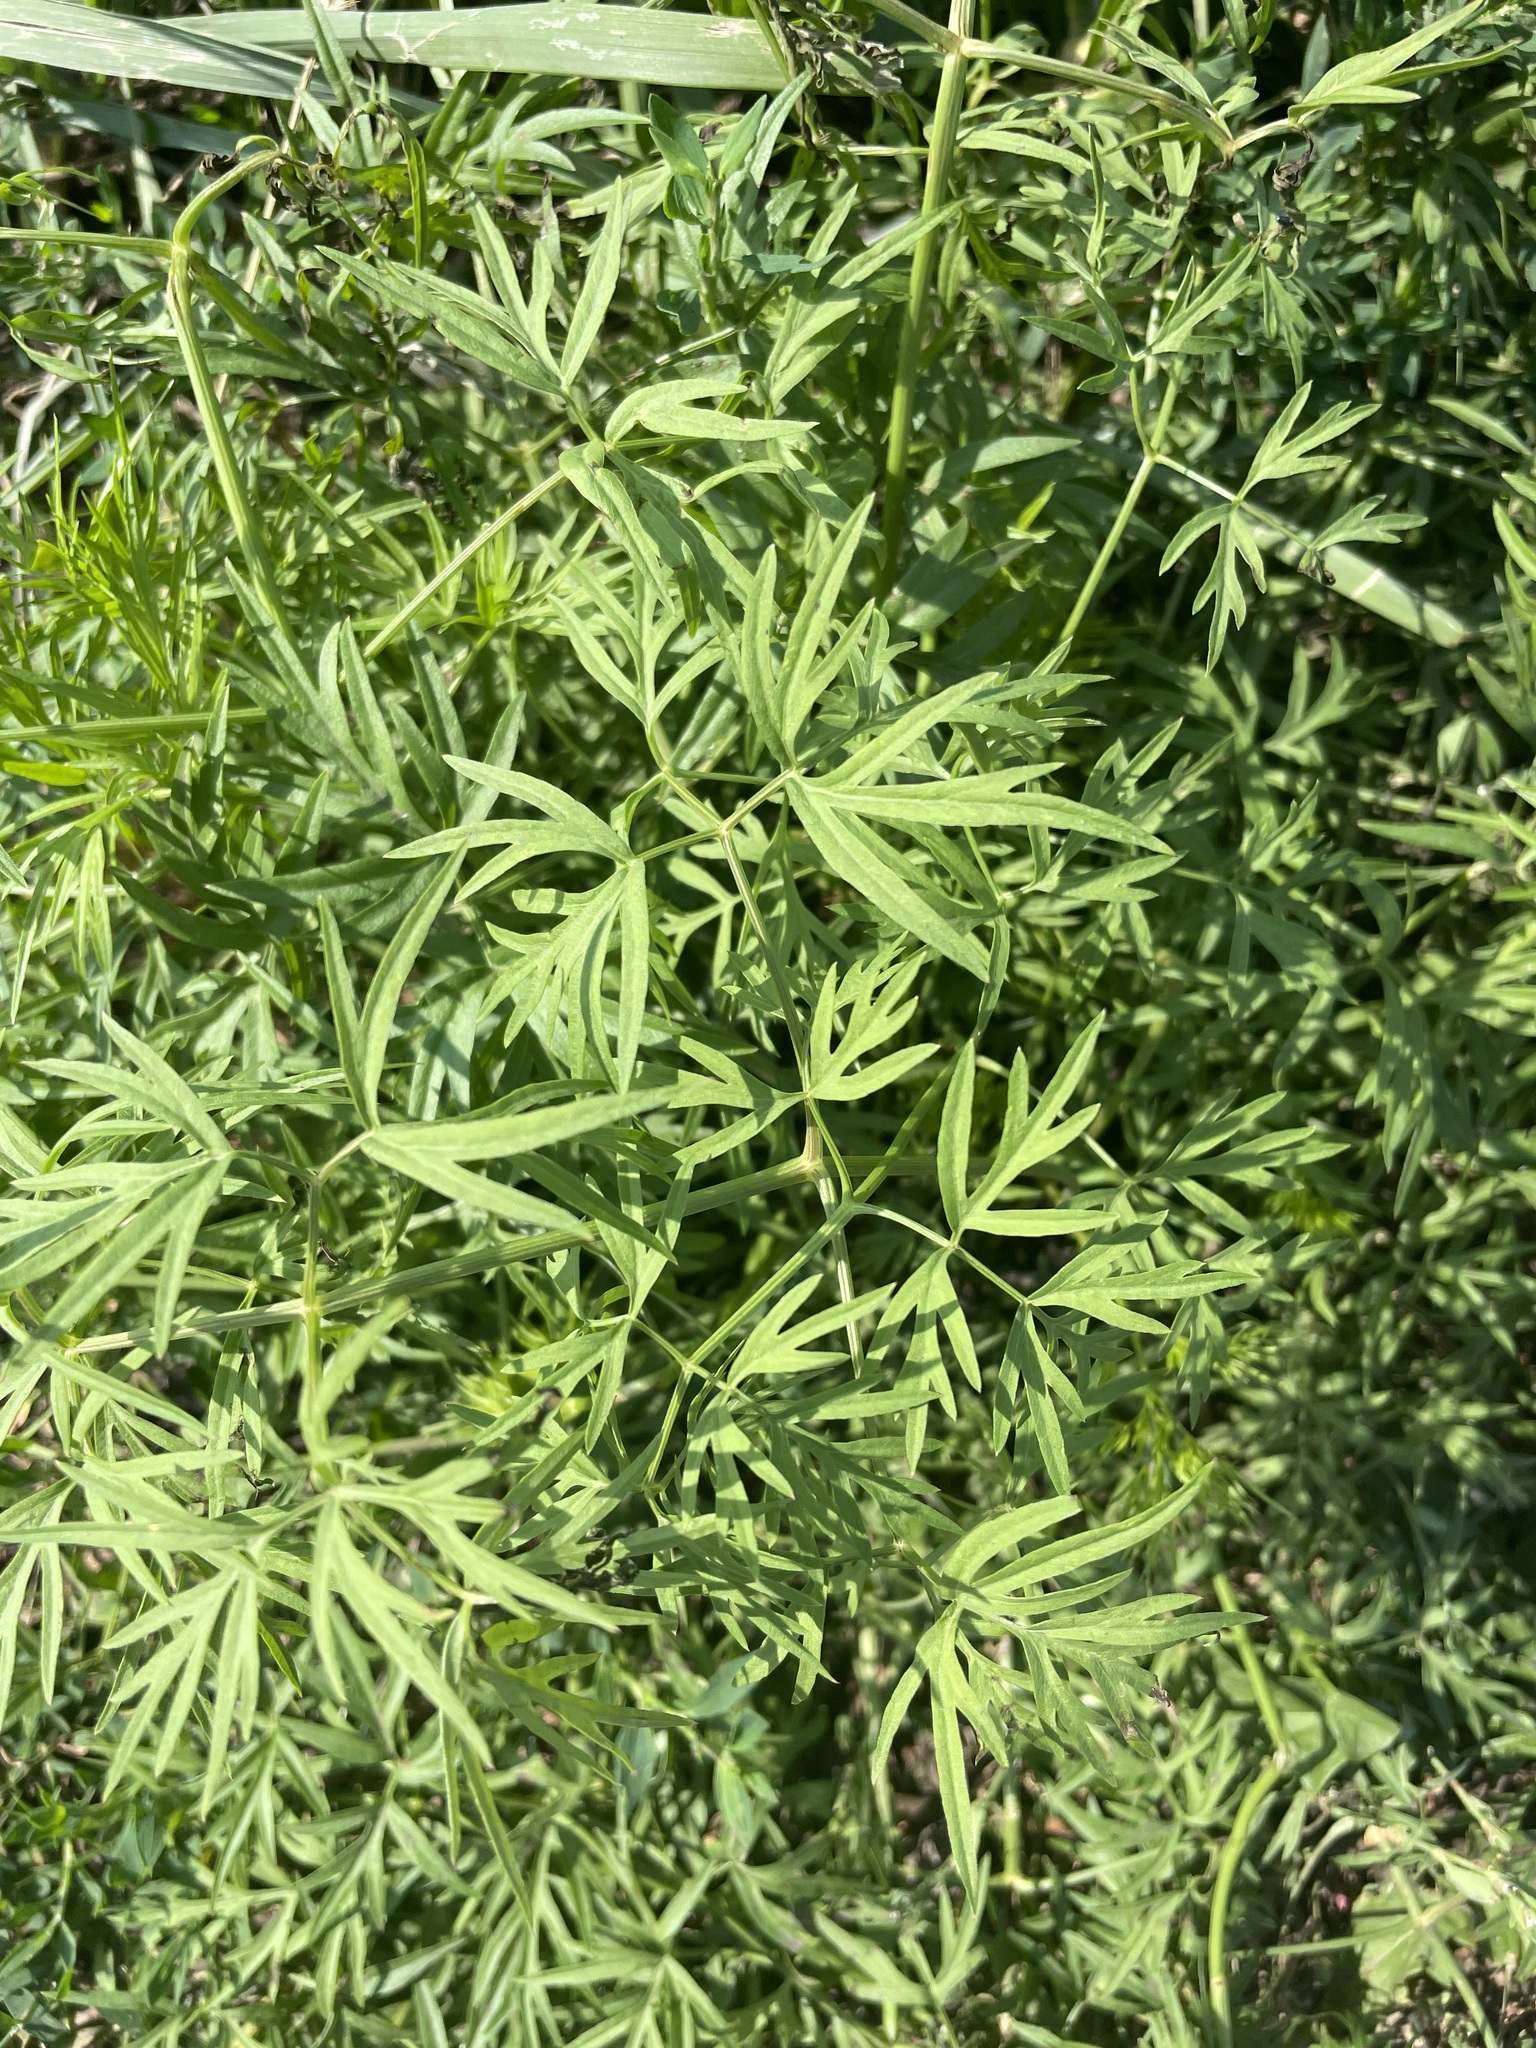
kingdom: Plantae
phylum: Tracheophyta
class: Magnoliopsida
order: Apiales
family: Apiaceae
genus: Cenolophium
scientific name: Cenolophium fischeri
